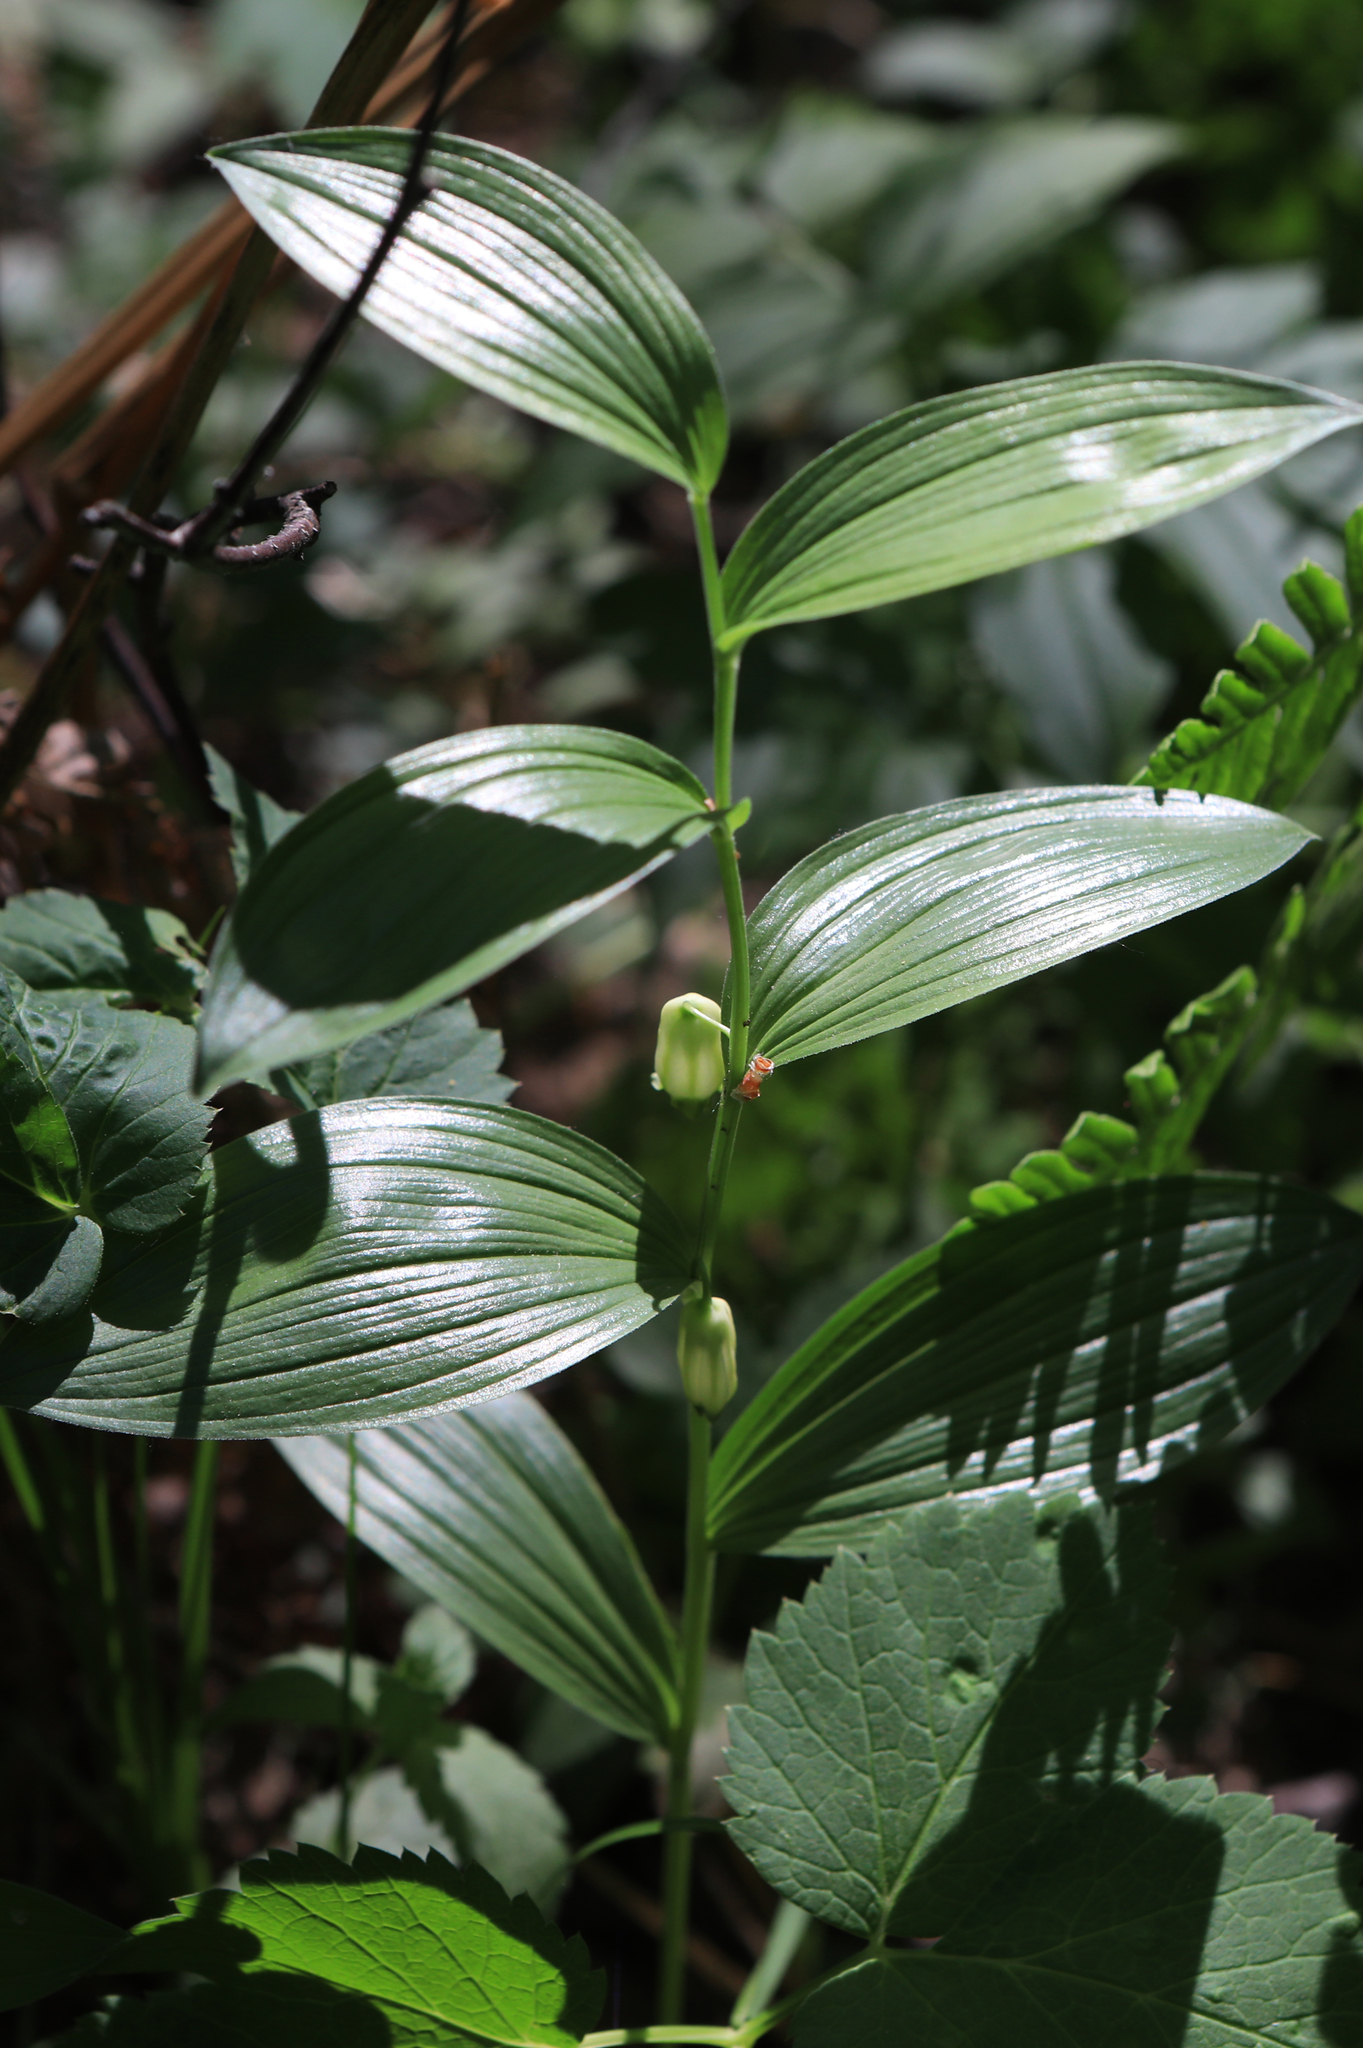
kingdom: Plantae
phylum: Tracheophyta
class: Liliopsida
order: Asparagales
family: Asparagaceae
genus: Polygonatum
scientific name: Polygonatum humile
